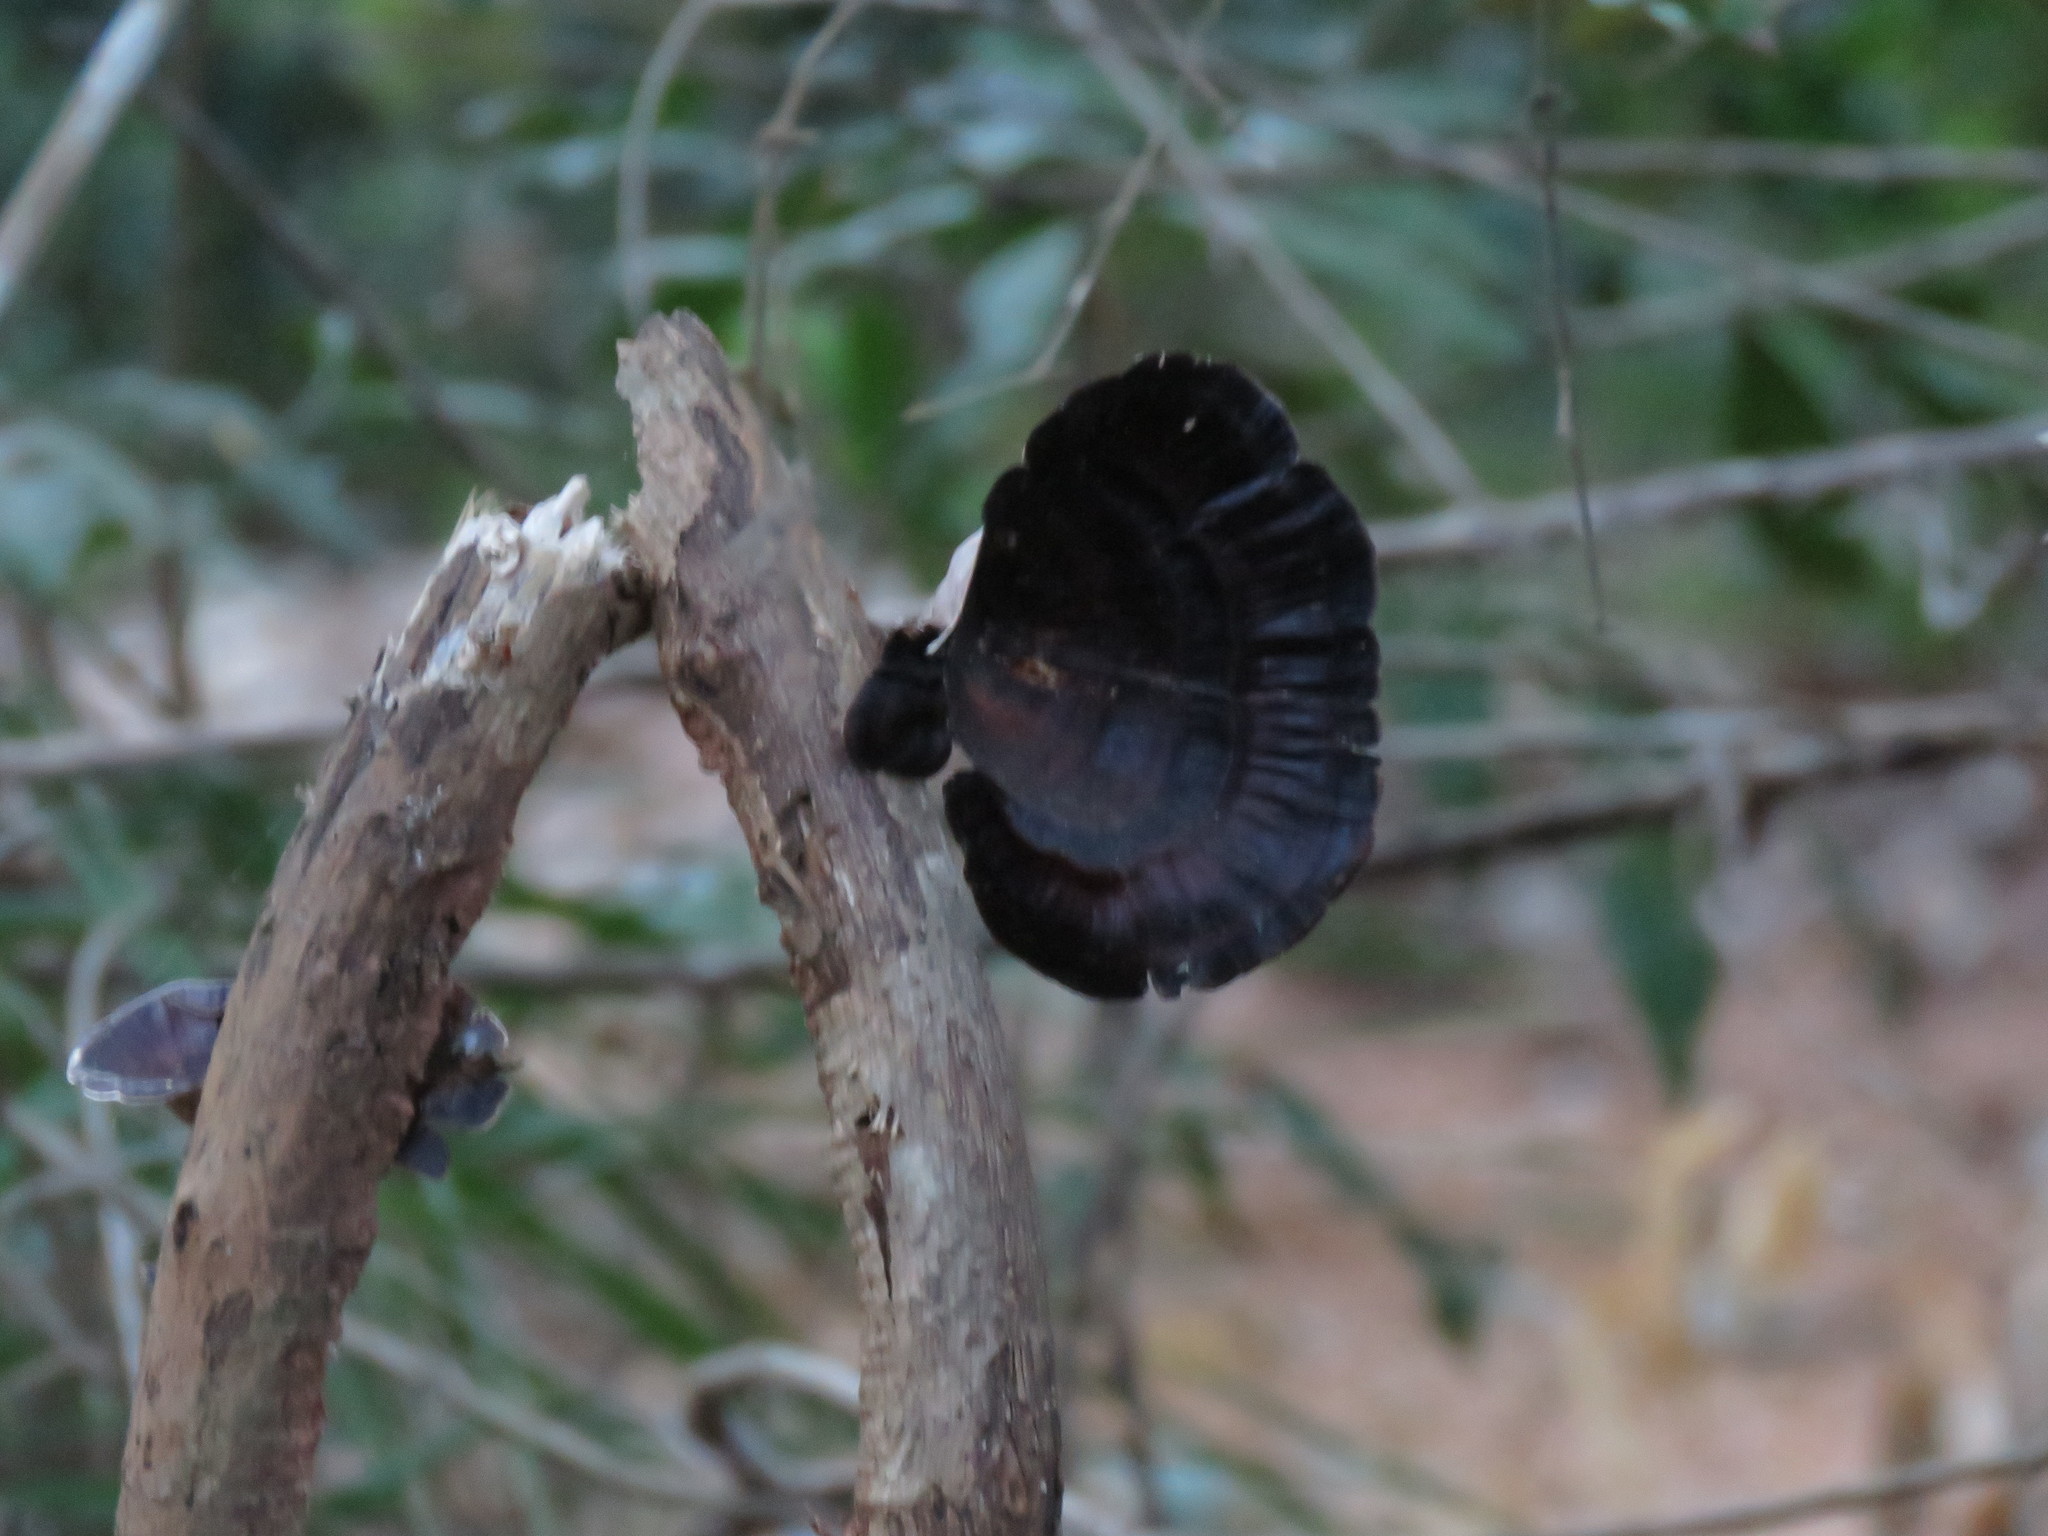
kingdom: Fungi
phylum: Basidiomycota
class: Agaricomycetes
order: Polyporales
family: Polyporaceae
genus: Microporus
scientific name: Microporus xanthopus
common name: Yellow-stemmed micropore
